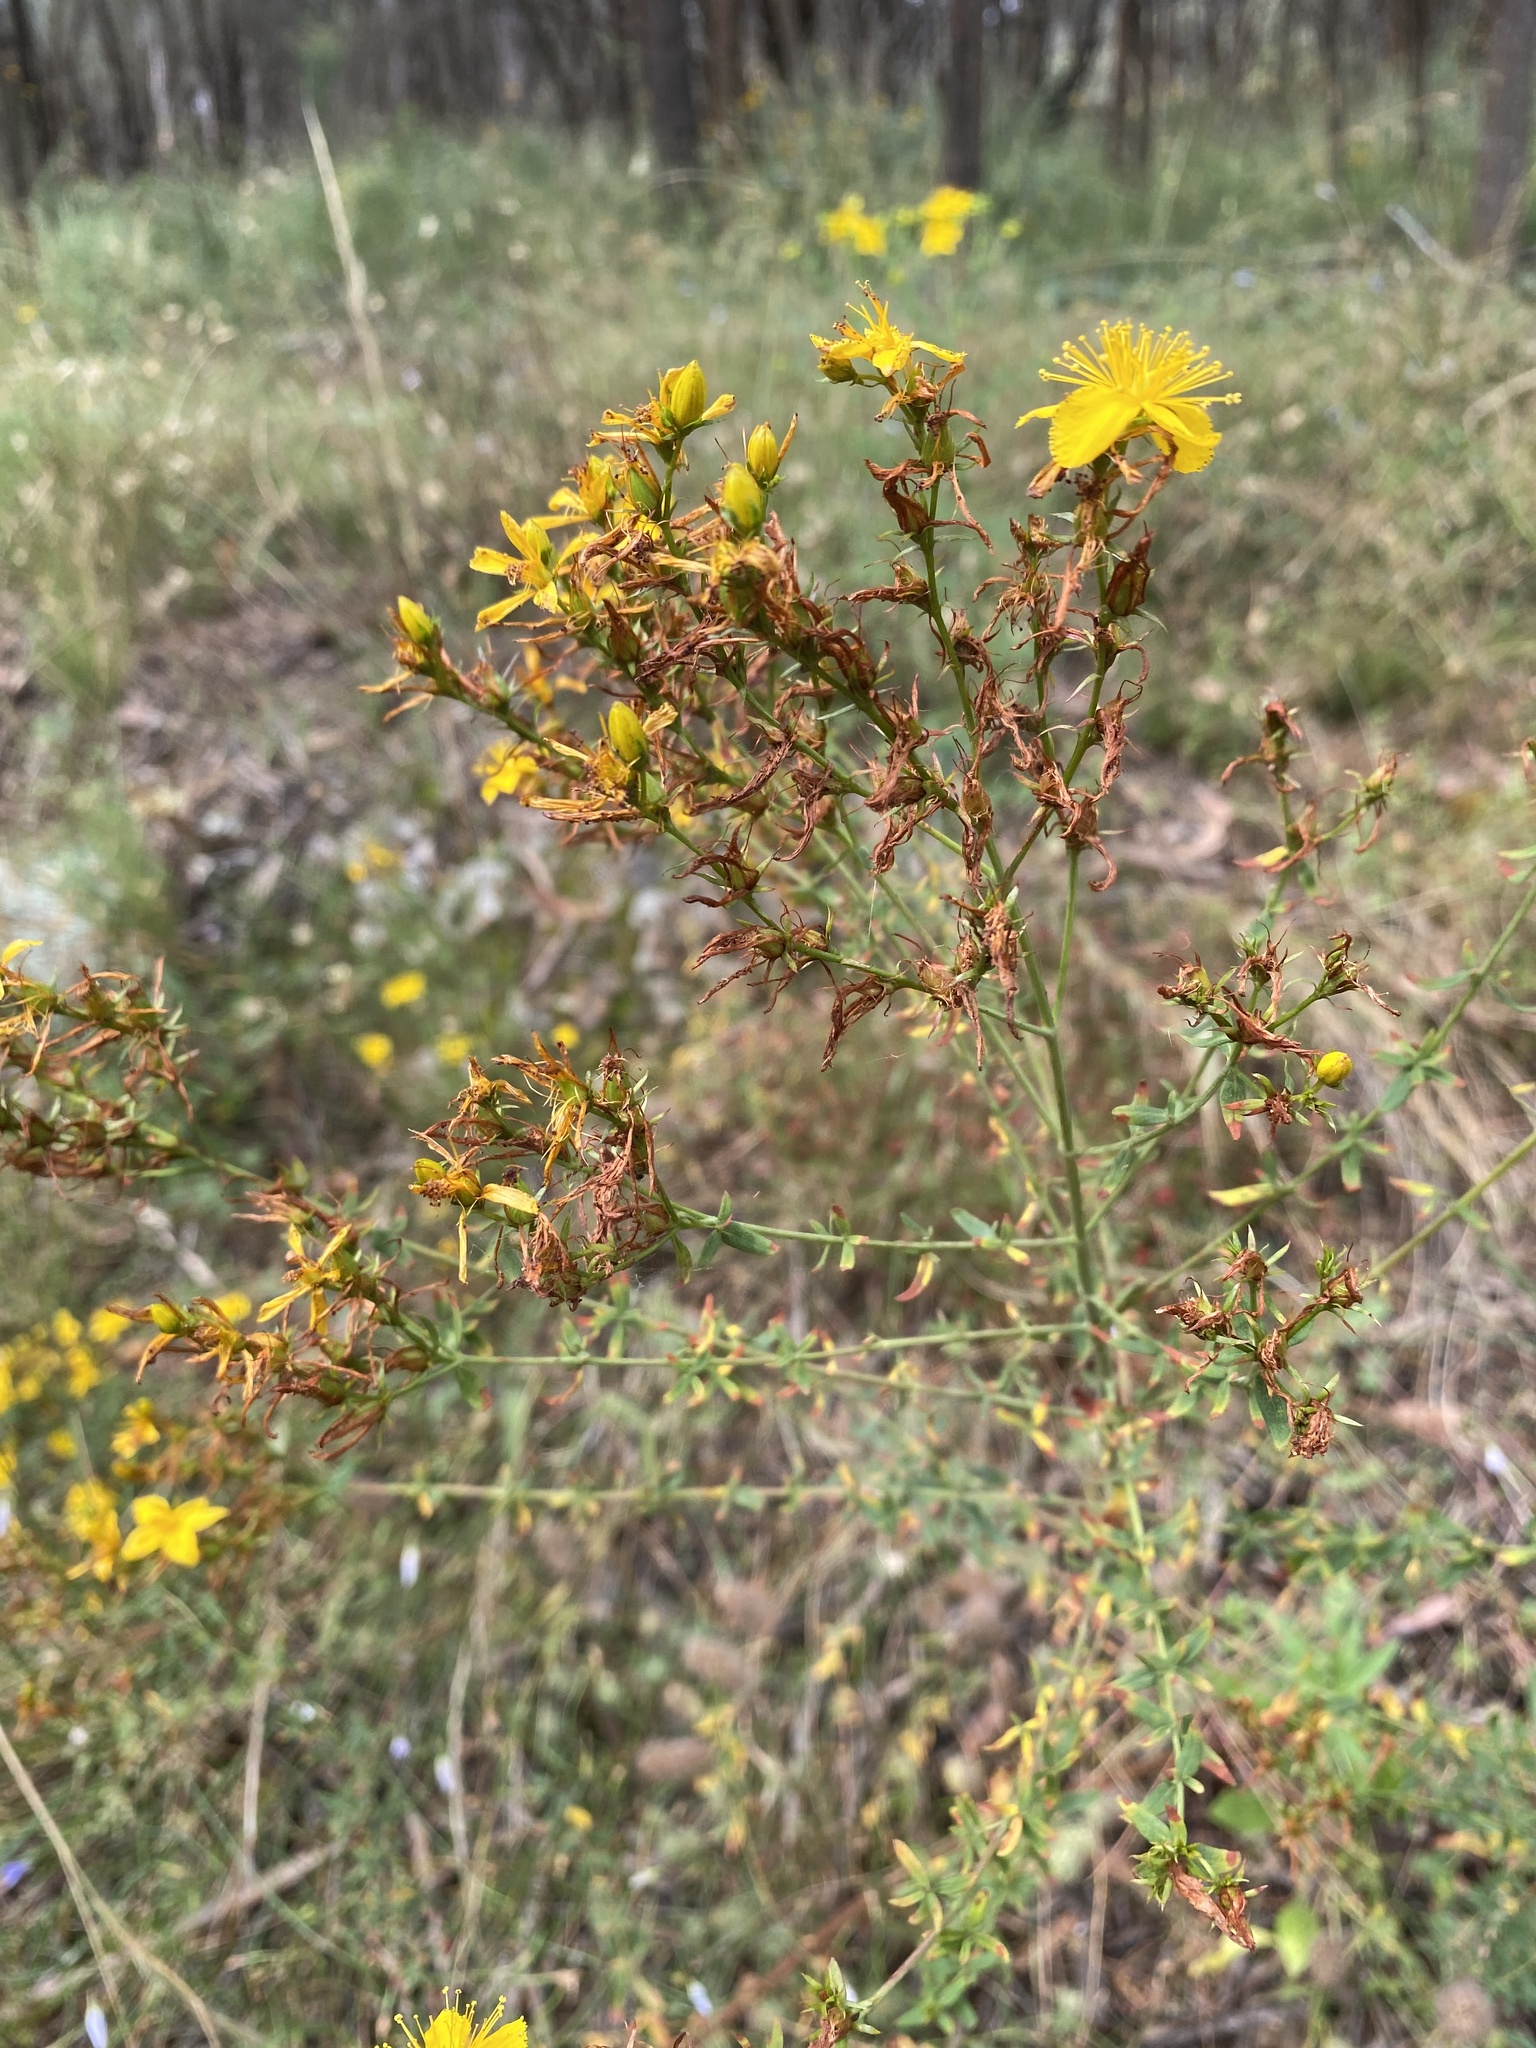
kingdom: Plantae
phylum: Tracheophyta
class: Magnoliopsida
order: Malpighiales
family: Hypericaceae
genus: Hypericum
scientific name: Hypericum perforatum
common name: Common st. johnswort
